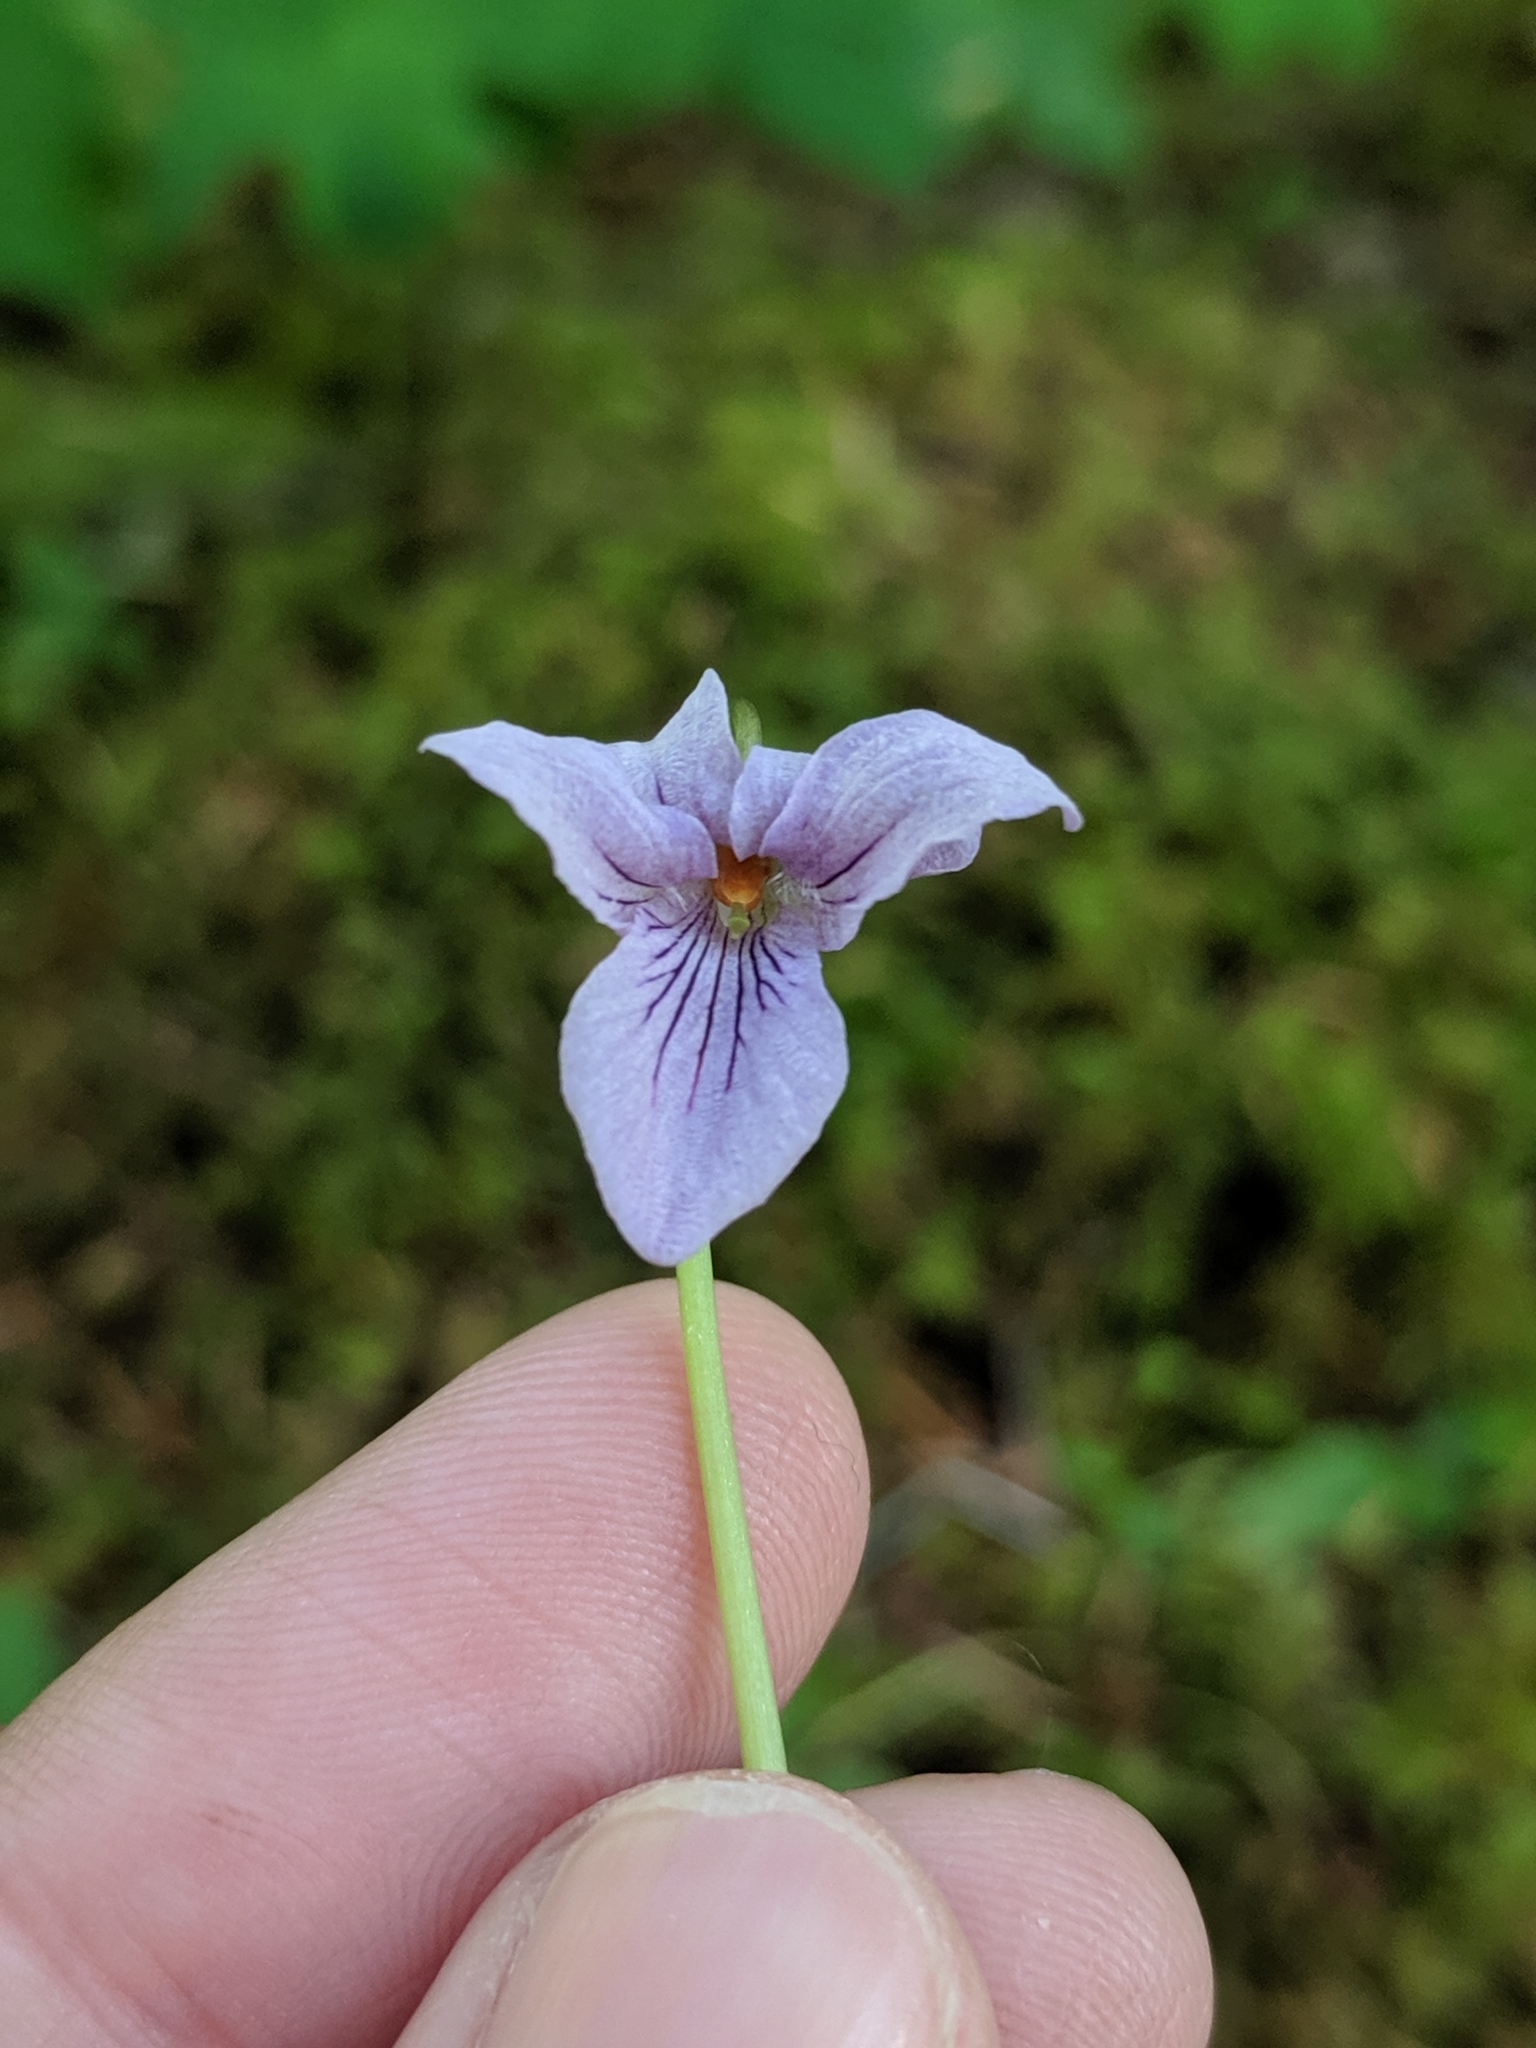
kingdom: Plantae
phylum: Tracheophyta
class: Magnoliopsida
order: Malpighiales
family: Violaceae
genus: Viola
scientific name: Viola palustris
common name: Marsh violet
